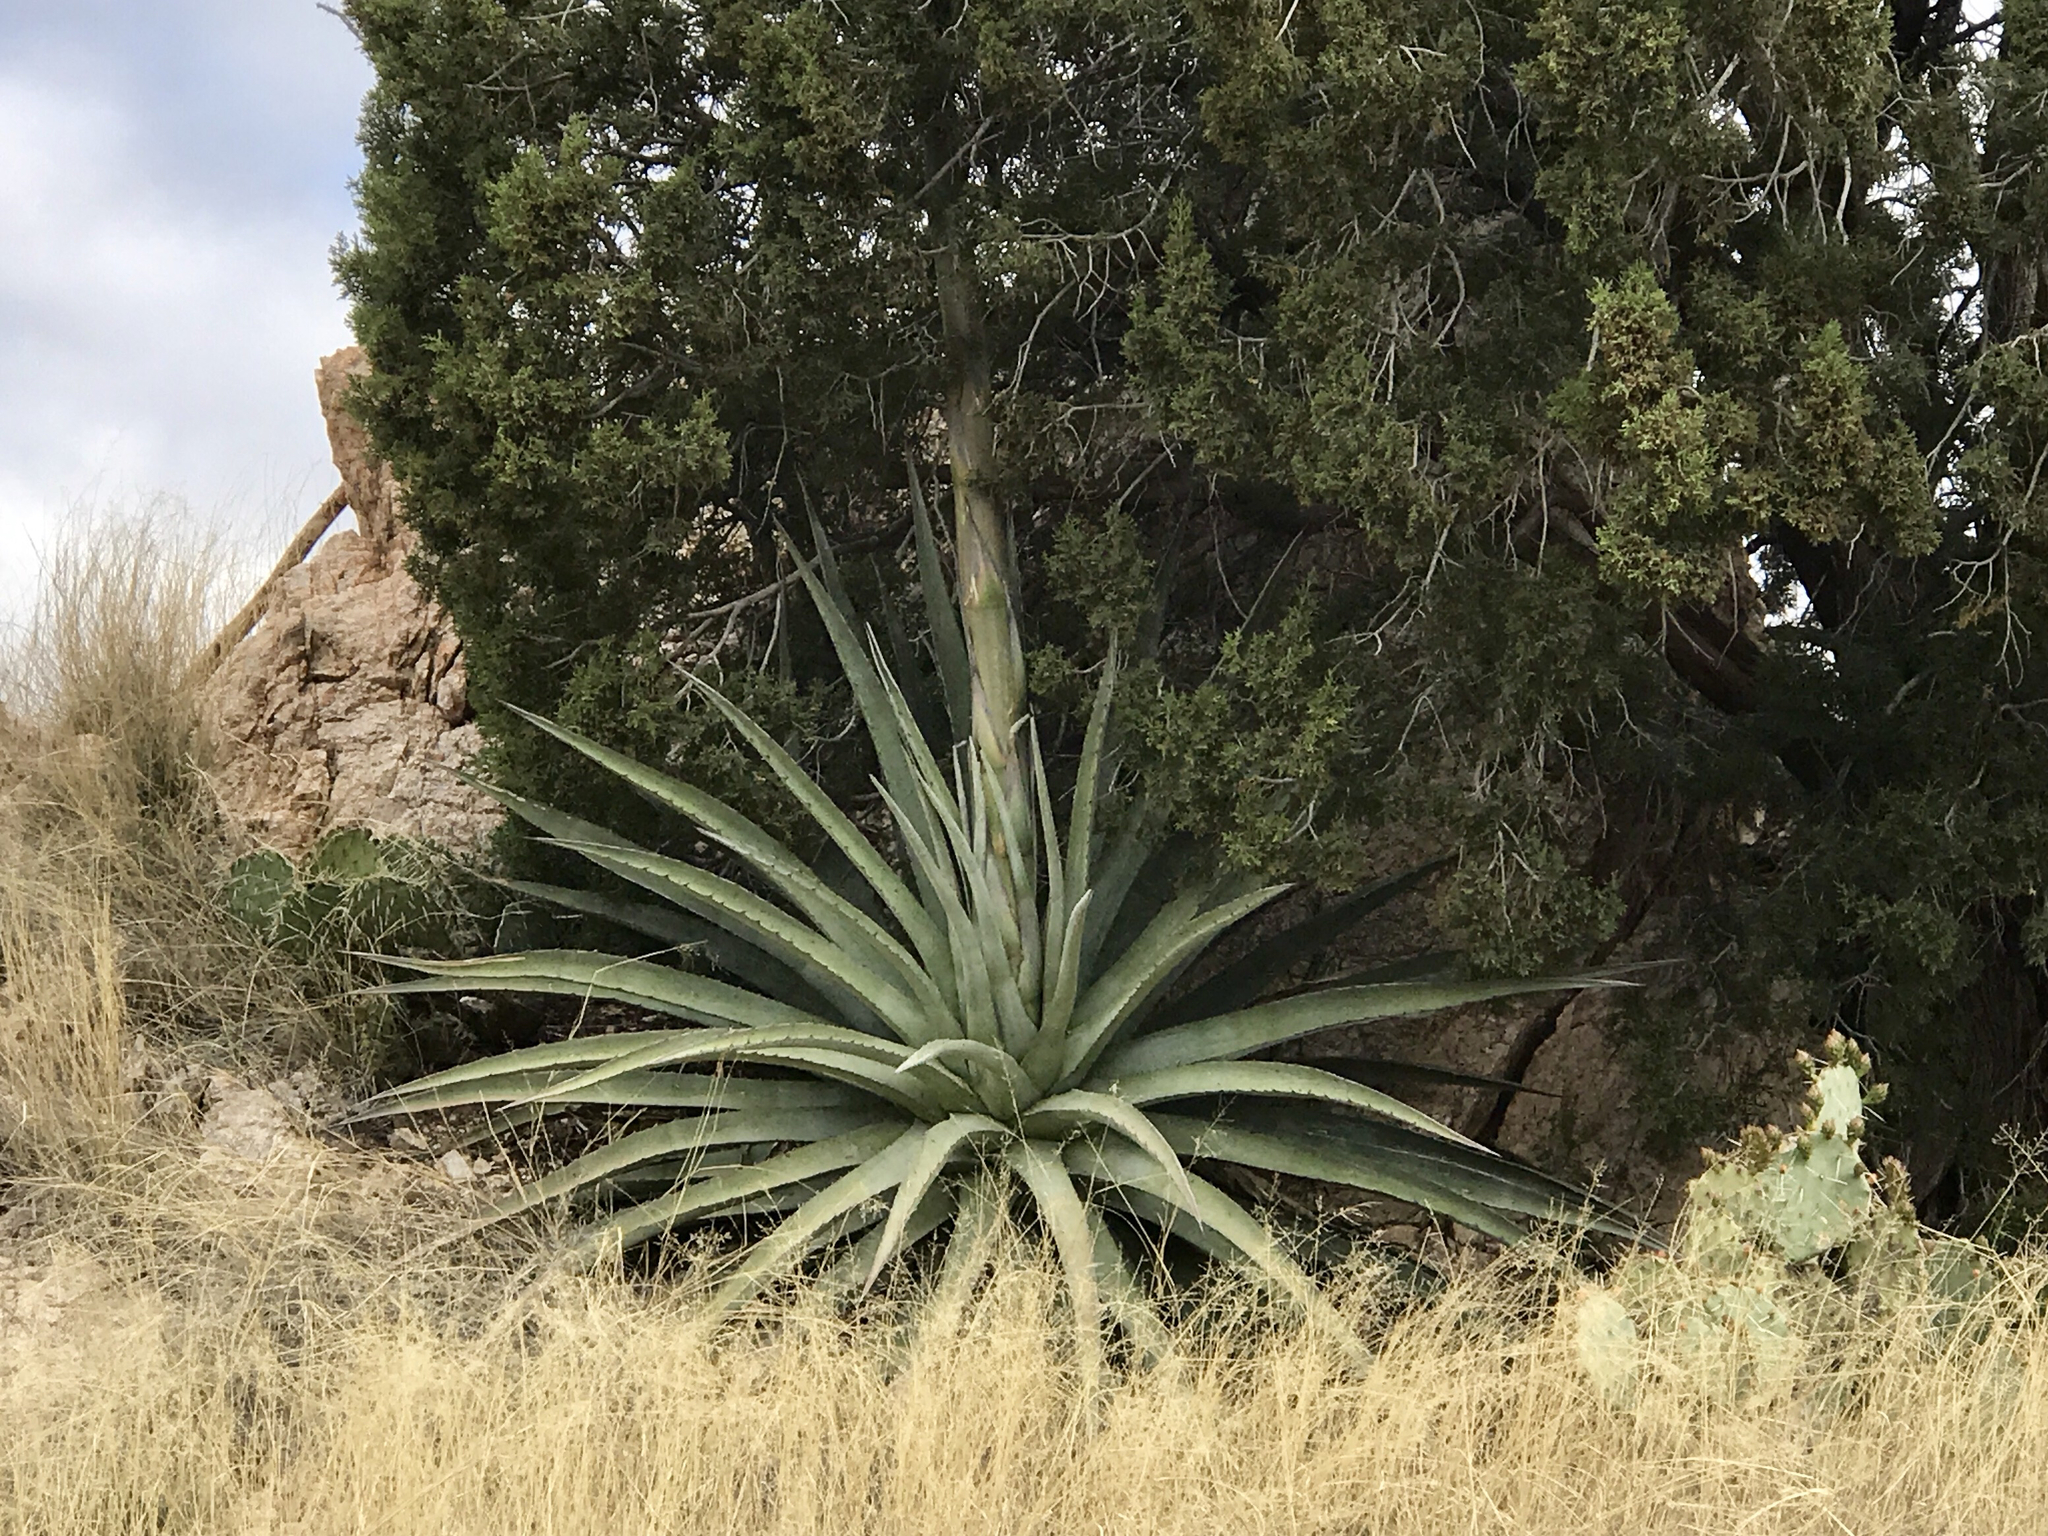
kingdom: Plantae
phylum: Tracheophyta
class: Liliopsida
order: Asparagales
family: Asparagaceae
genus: Agave
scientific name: Agave palmeri
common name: Palmer agave
